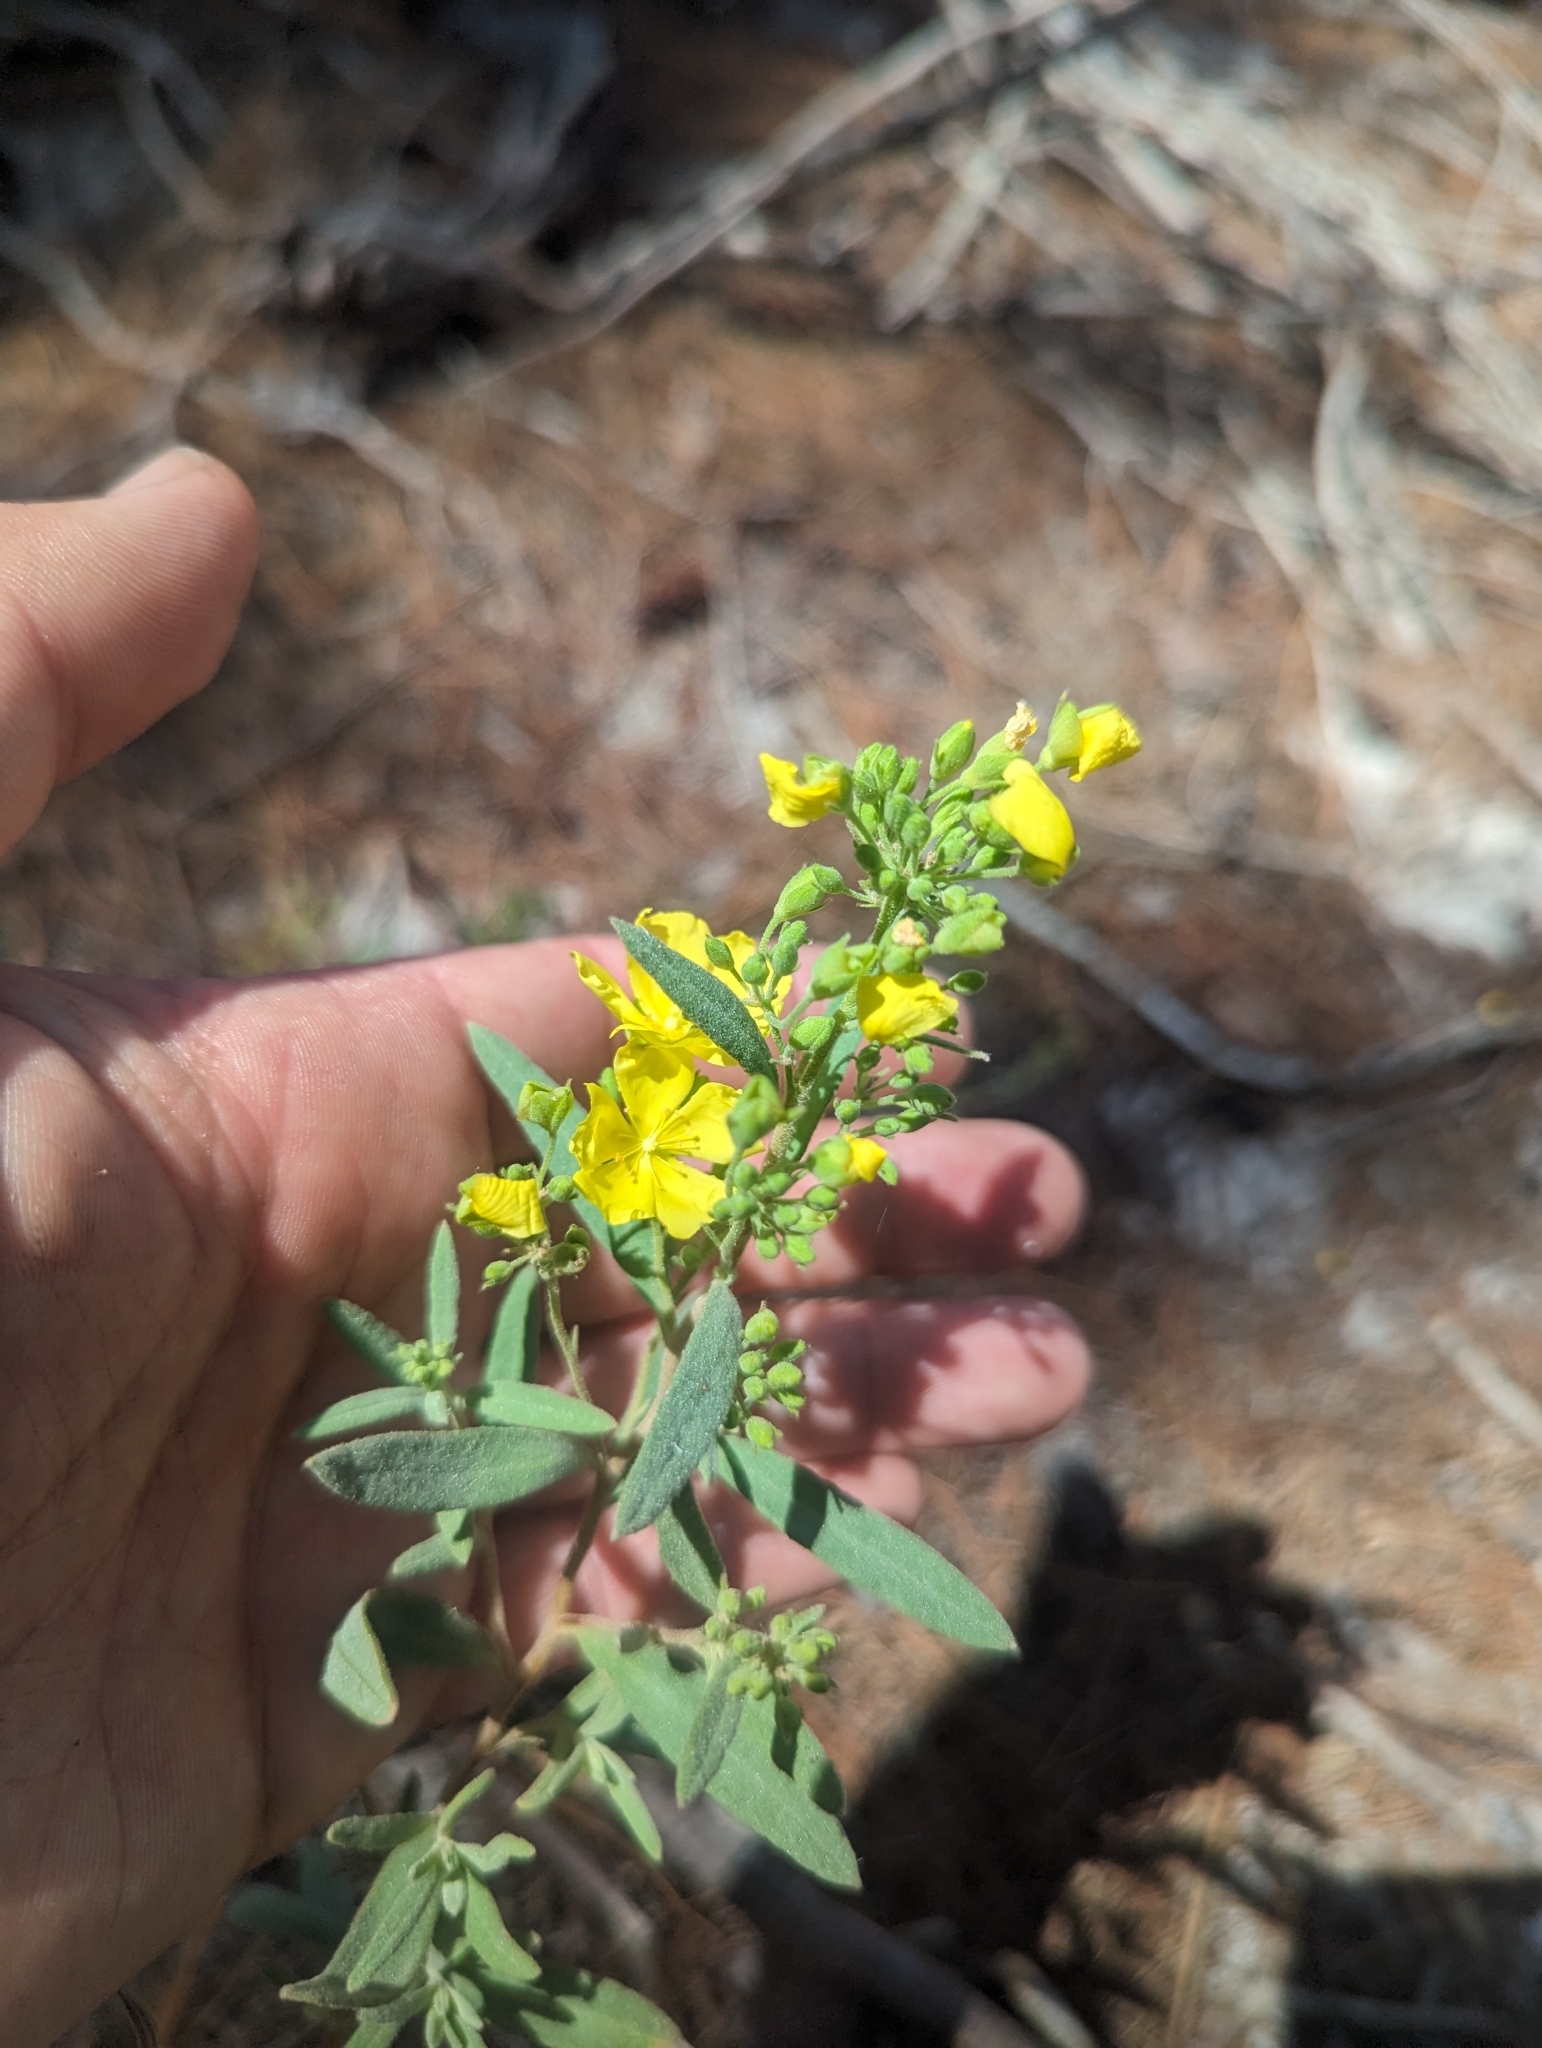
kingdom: Plantae
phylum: Tracheophyta
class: Magnoliopsida
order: Malvales
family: Cistaceae
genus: Crocanthemum
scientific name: Crocanthemum nashii
